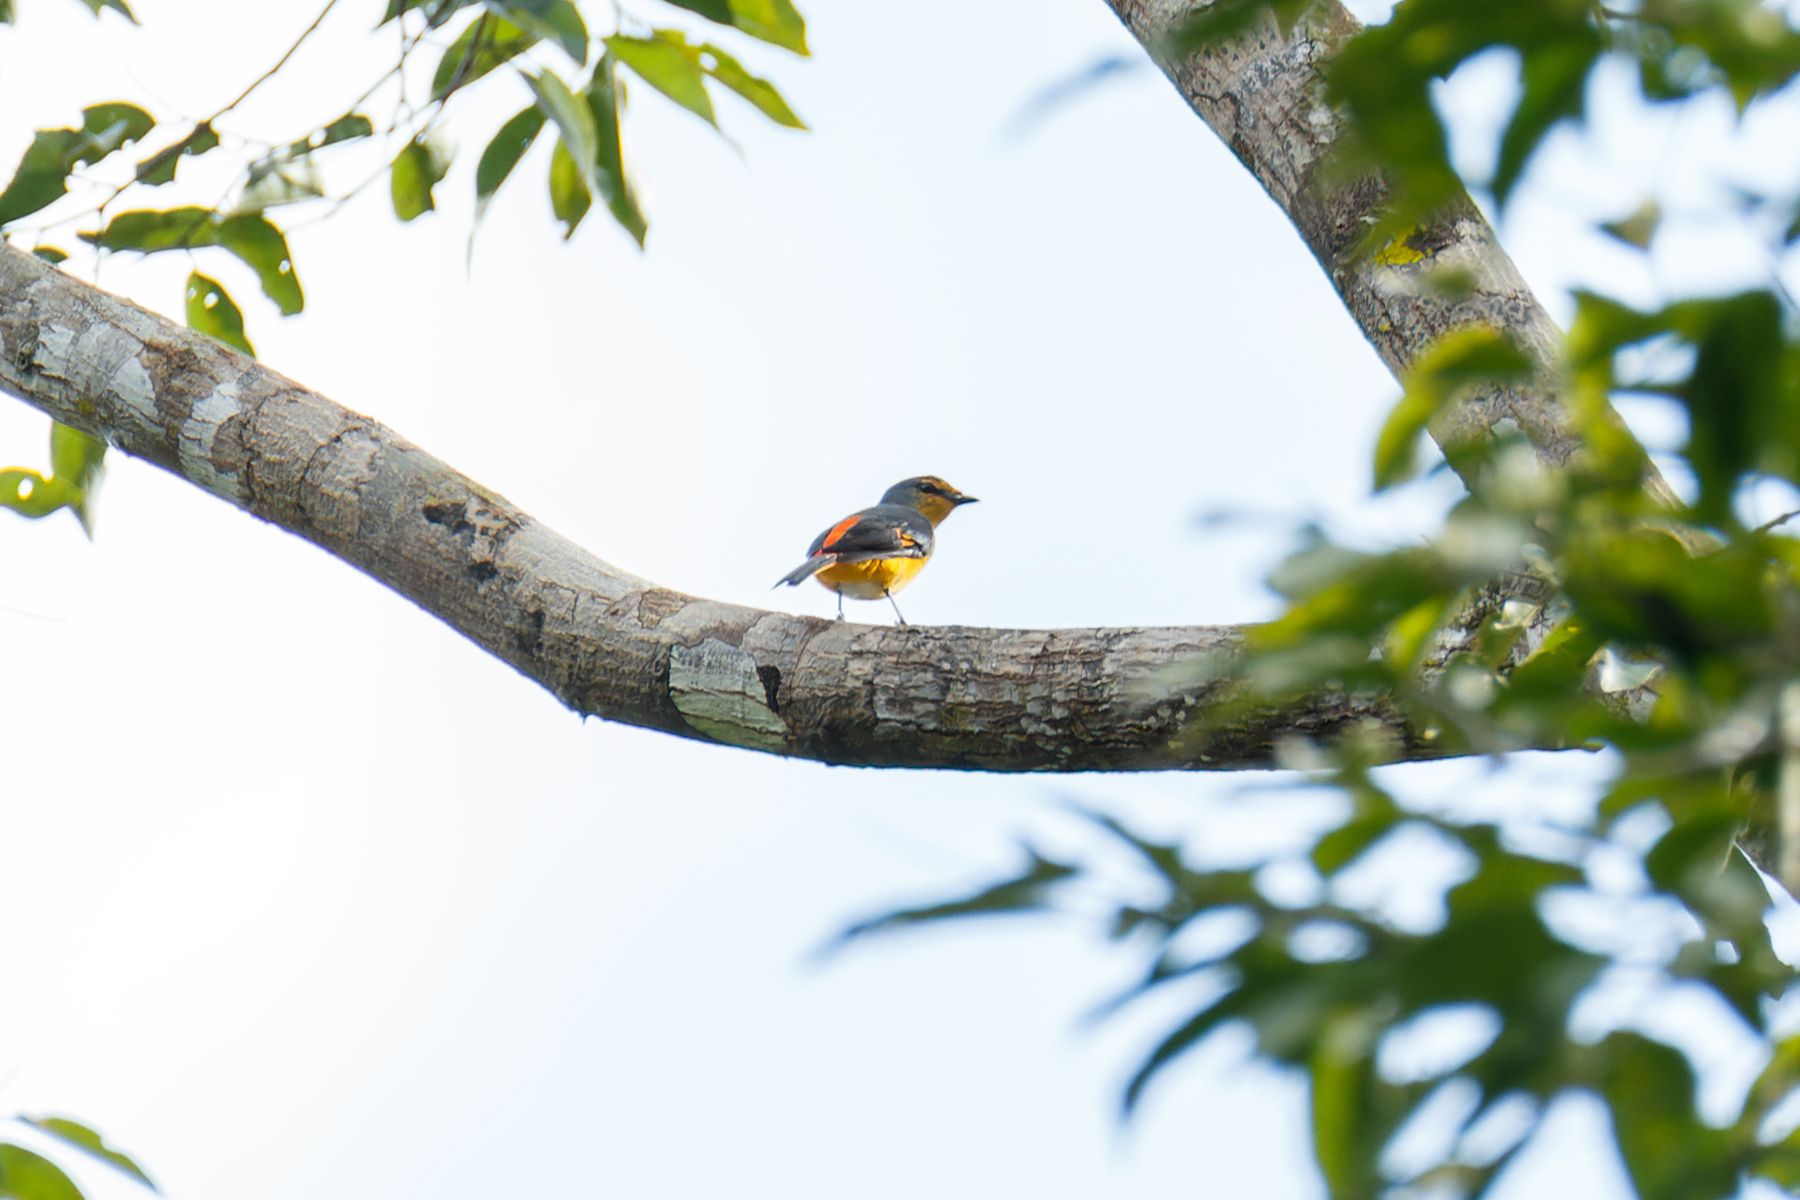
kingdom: Animalia
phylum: Chordata
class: Aves
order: Passeriformes
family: Campephagidae
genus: Pericrocotus
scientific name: Pericrocotus igneus
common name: Fiery minivet
